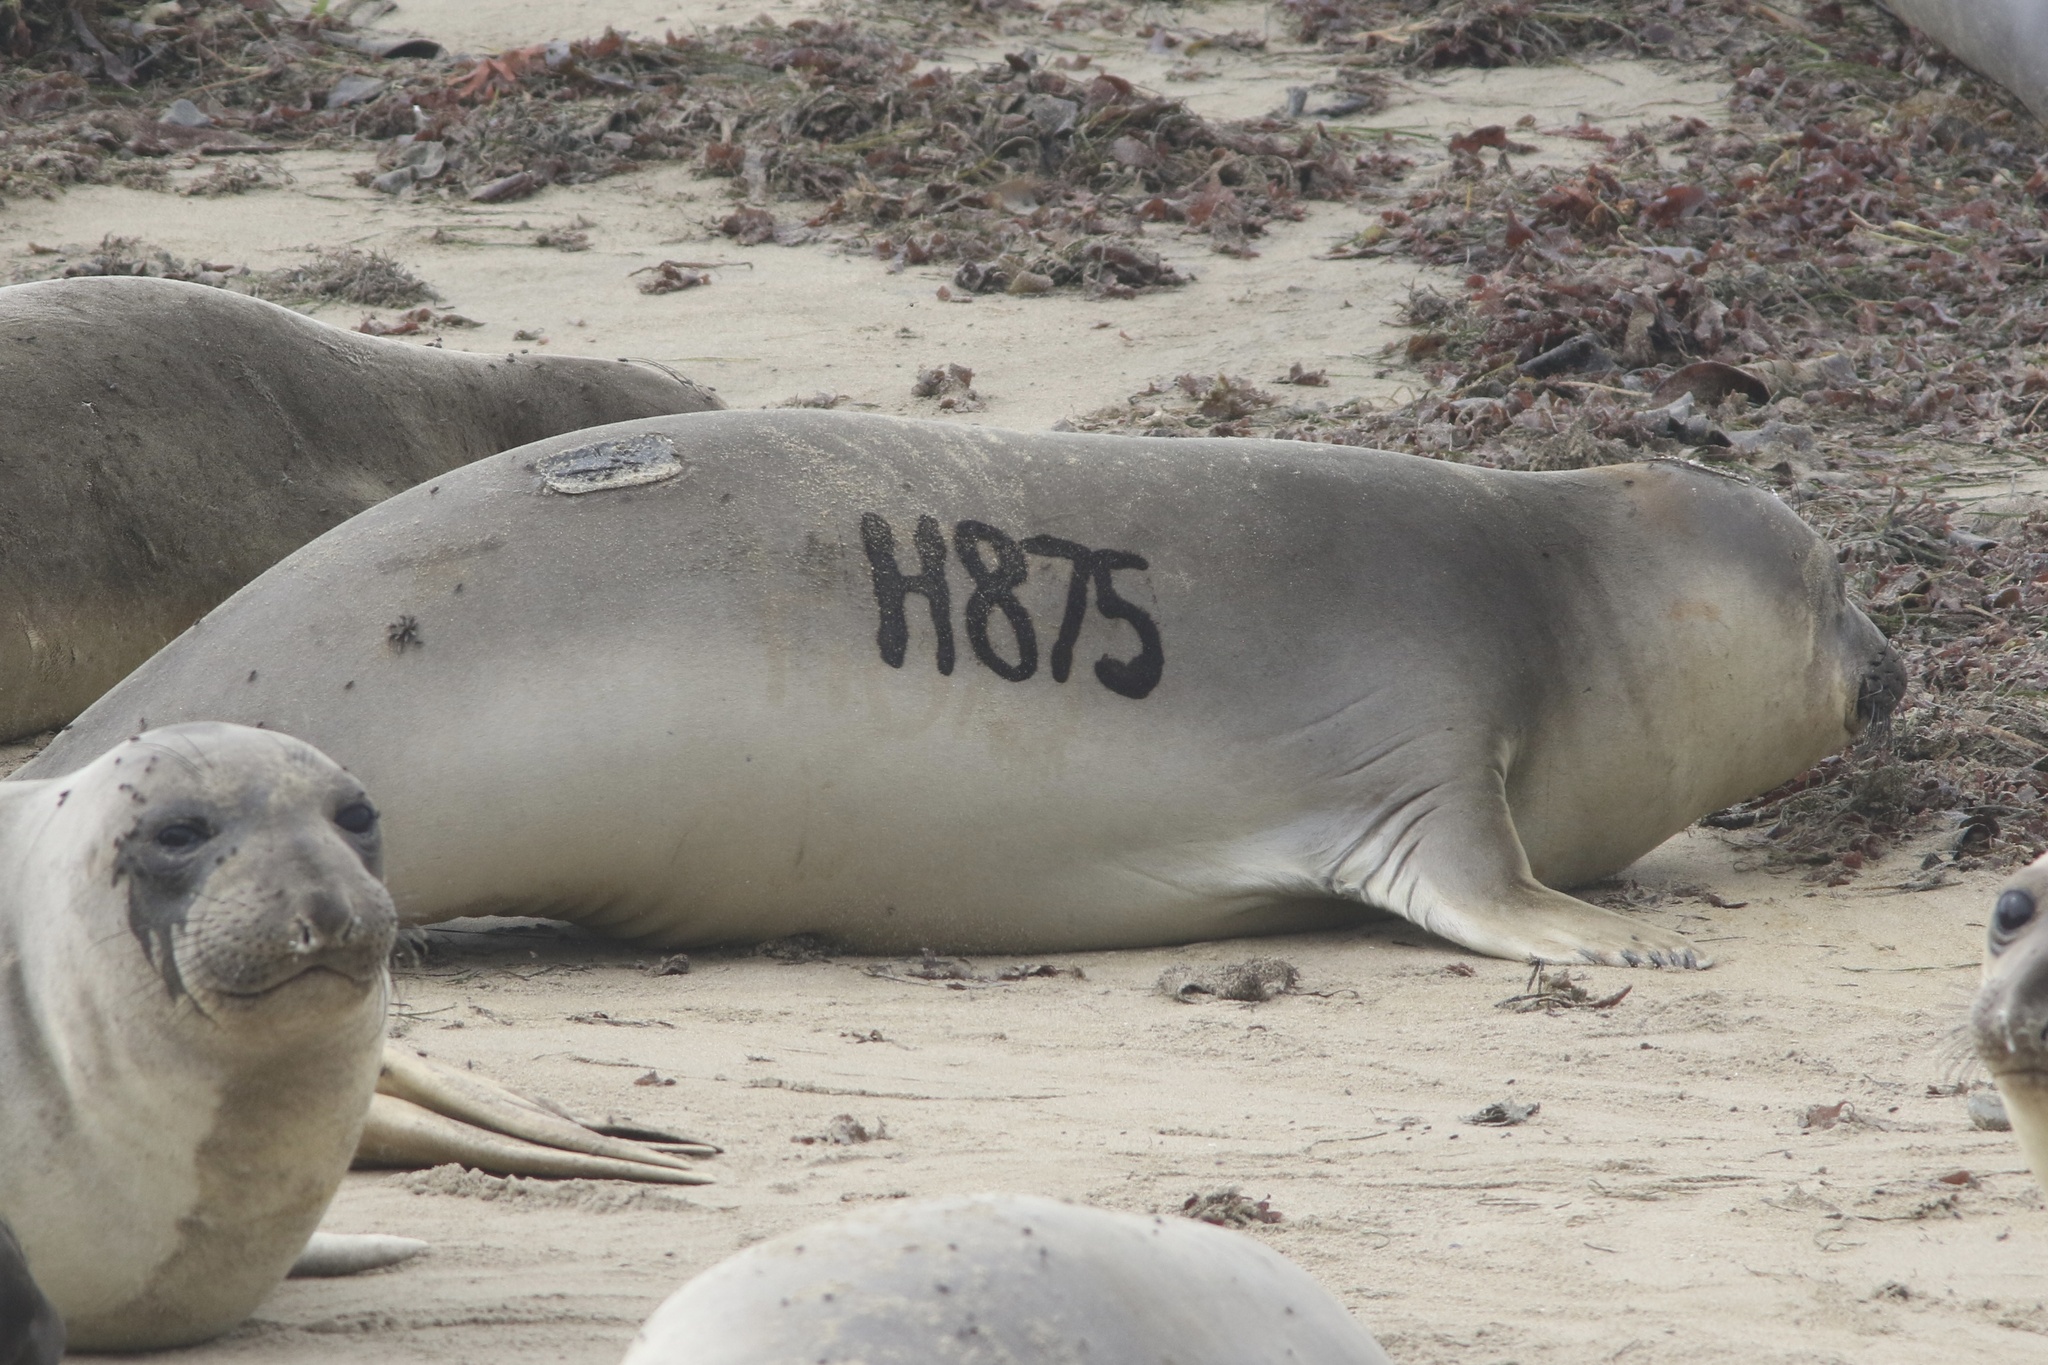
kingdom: Animalia
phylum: Chordata
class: Mammalia
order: Carnivora
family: Phocidae
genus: Mirounga
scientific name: Mirounga angustirostris
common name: Northern elephant seal
